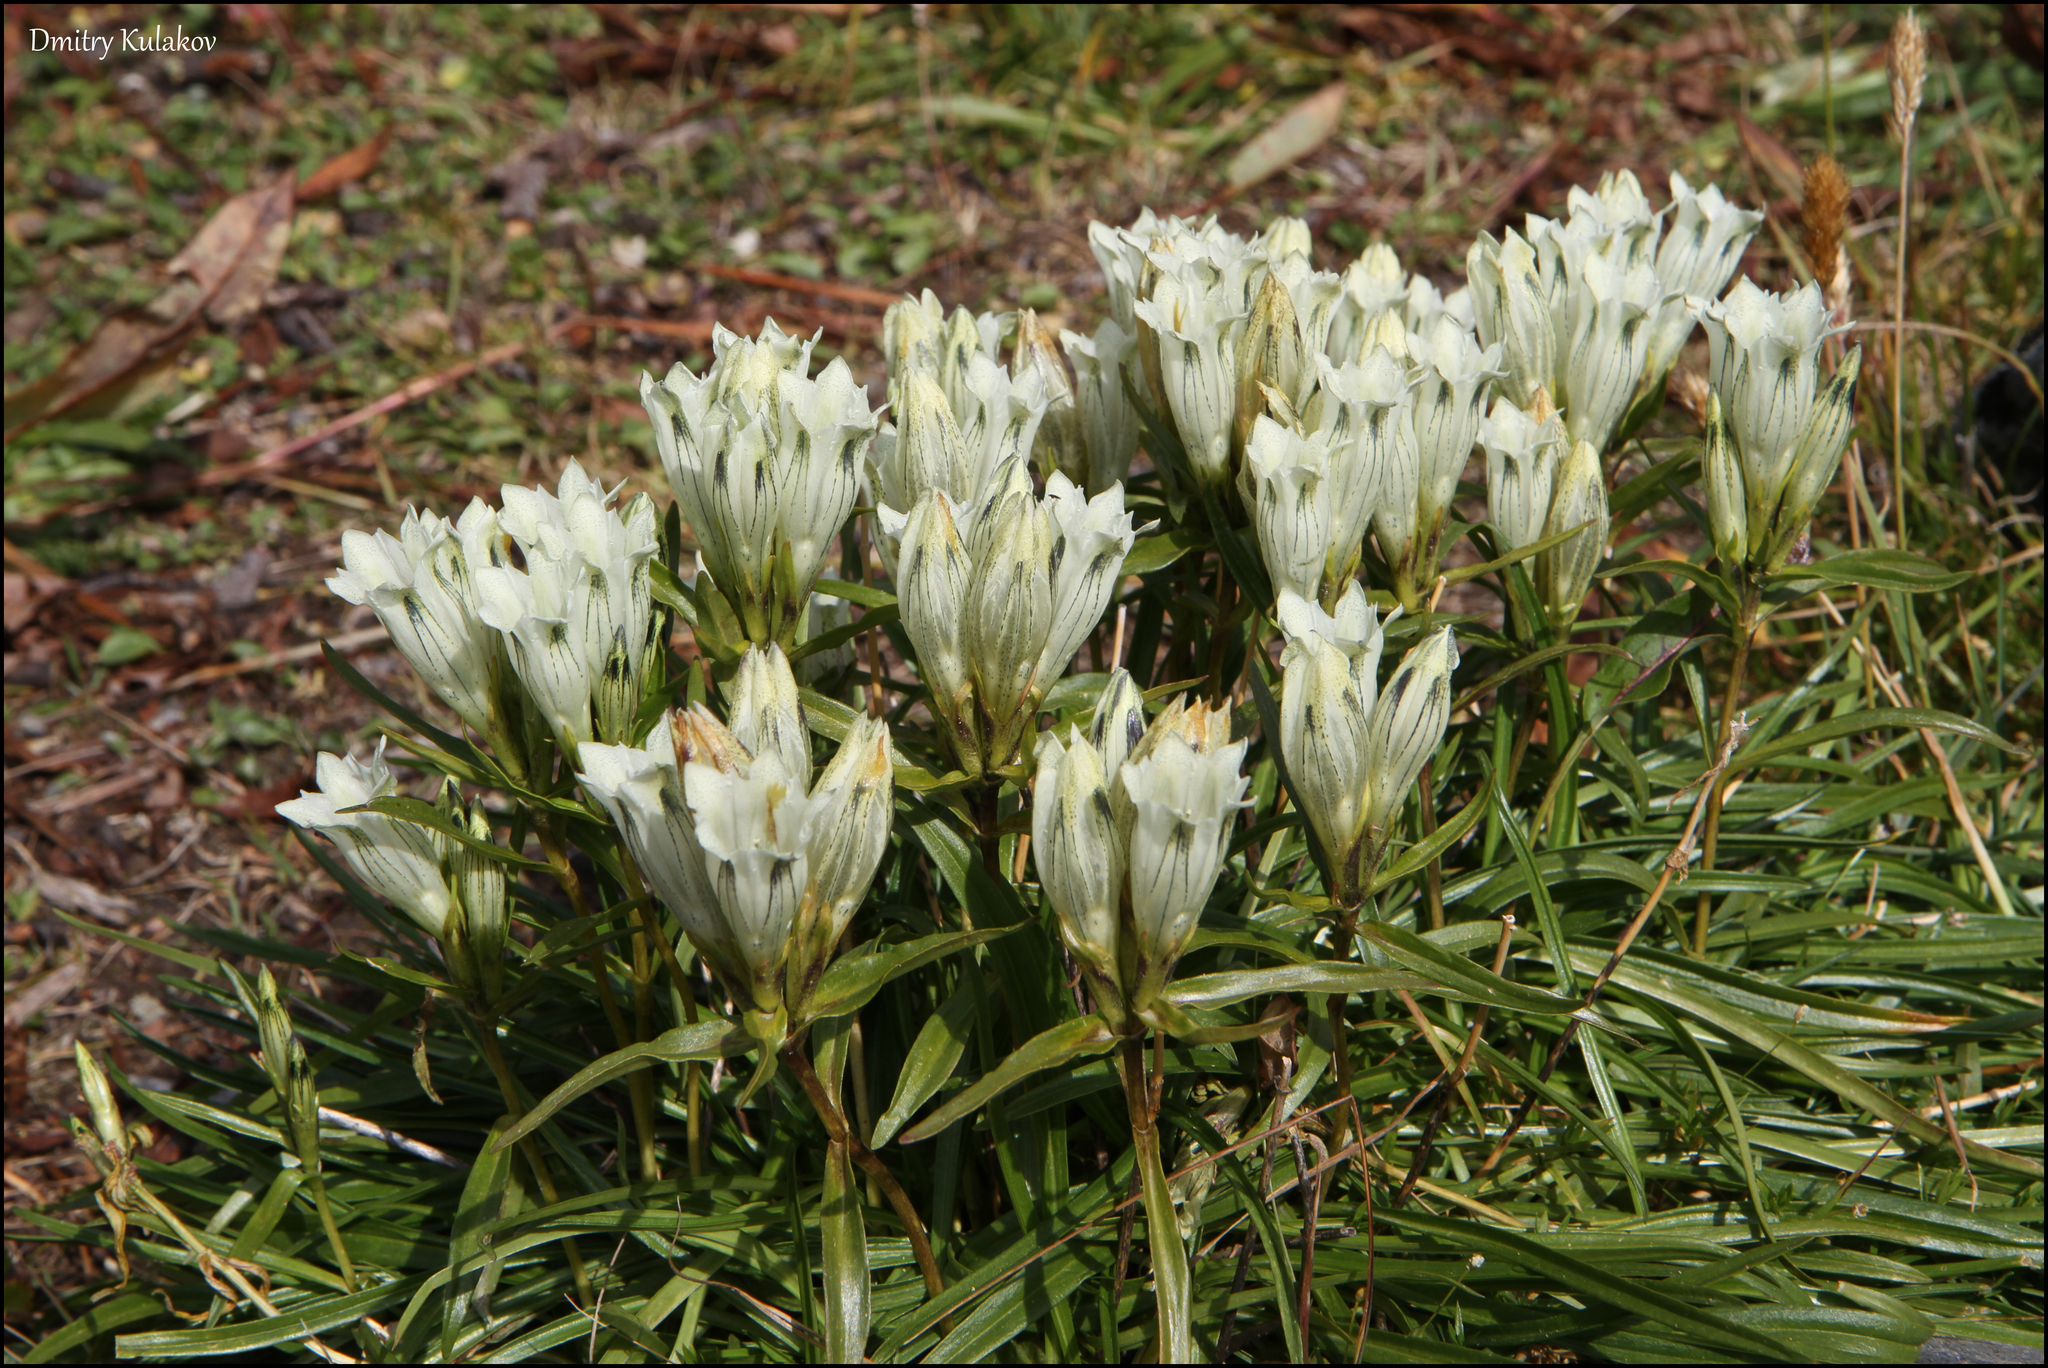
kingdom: Plantae
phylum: Tracheophyta
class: Magnoliopsida
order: Gentianales
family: Gentianaceae
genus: Gentiana
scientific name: Gentiana algida
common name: Arctic gentian
